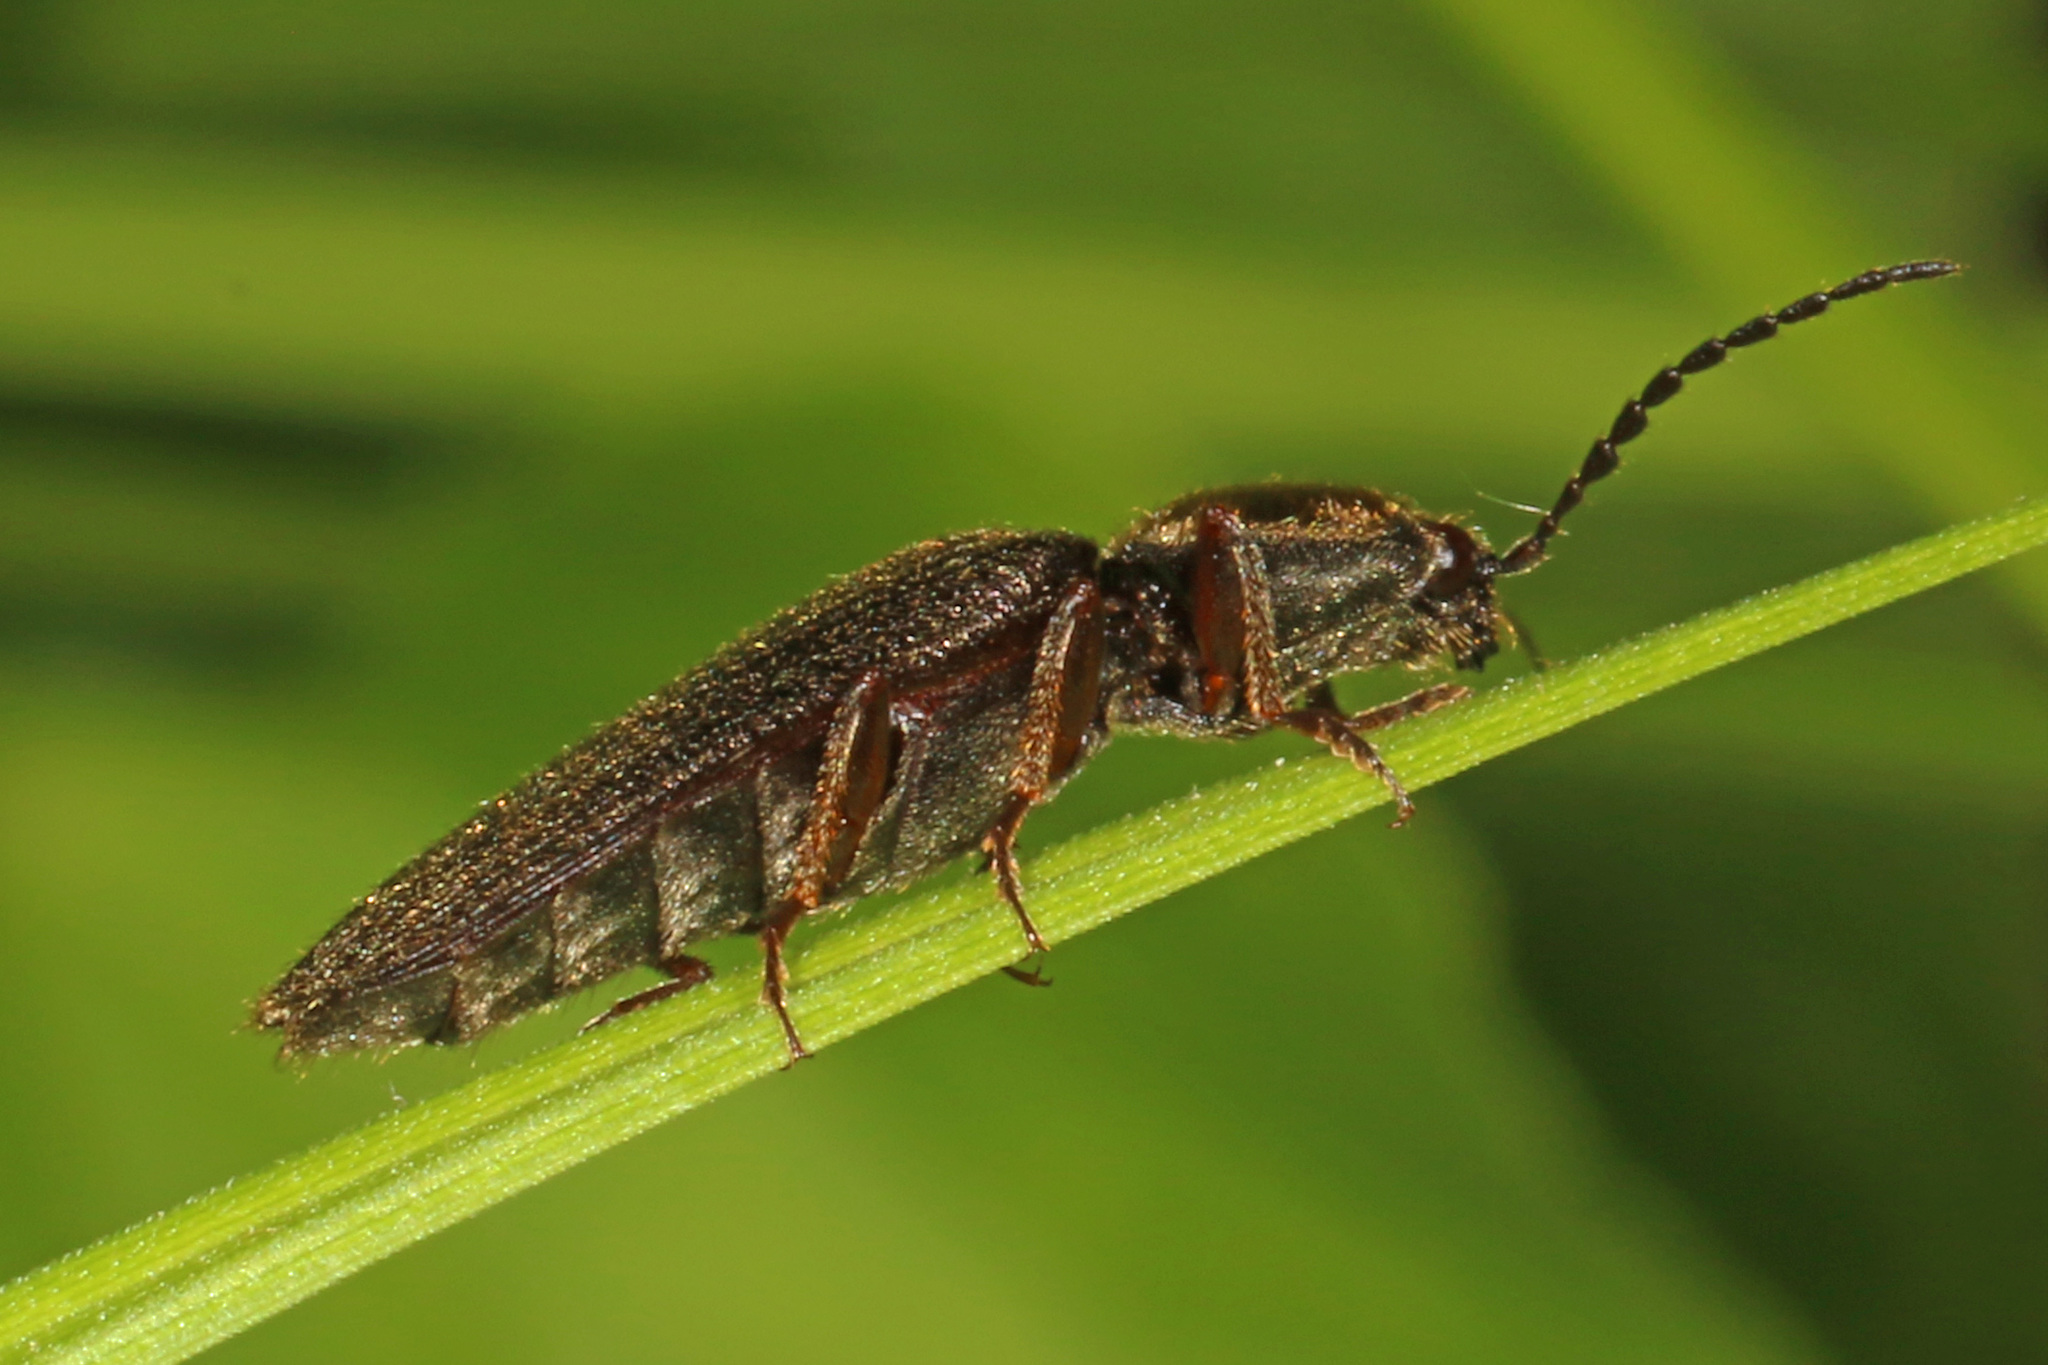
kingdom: Animalia
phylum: Arthropoda
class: Insecta
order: Coleoptera
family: Elateridae
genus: Hemicrepidius
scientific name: Hemicrepidius hemipodus
